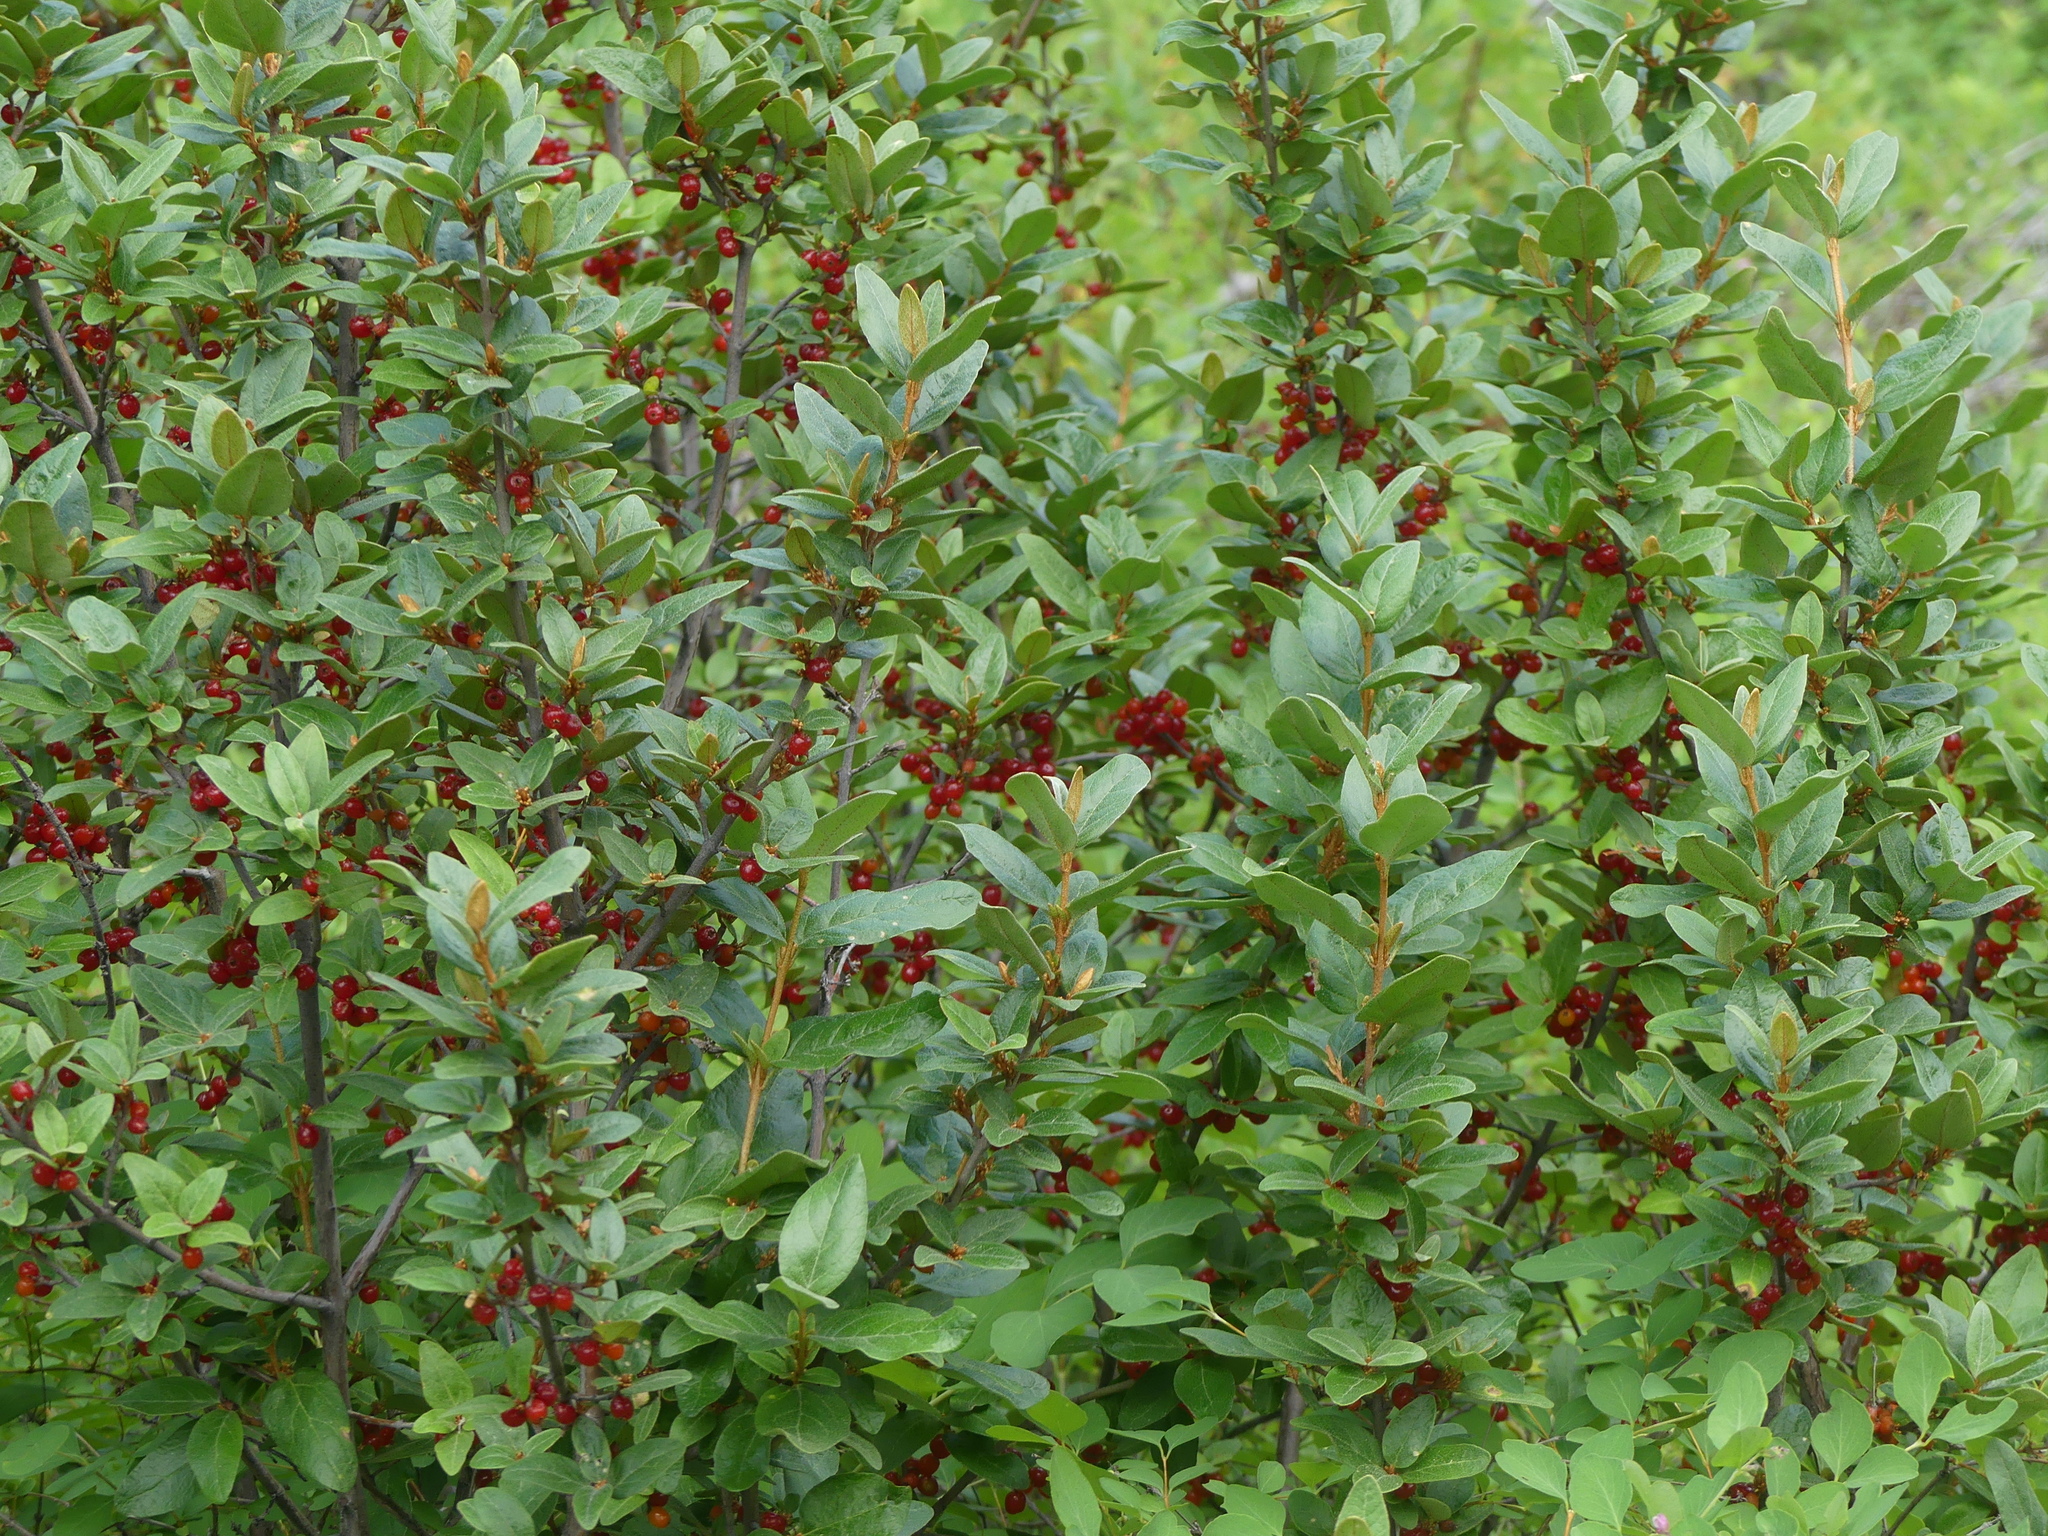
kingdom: Plantae
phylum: Tracheophyta
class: Magnoliopsida
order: Rosales
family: Elaeagnaceae
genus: Shepherdia
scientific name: Shepherdia canadensis
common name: Soapberry
